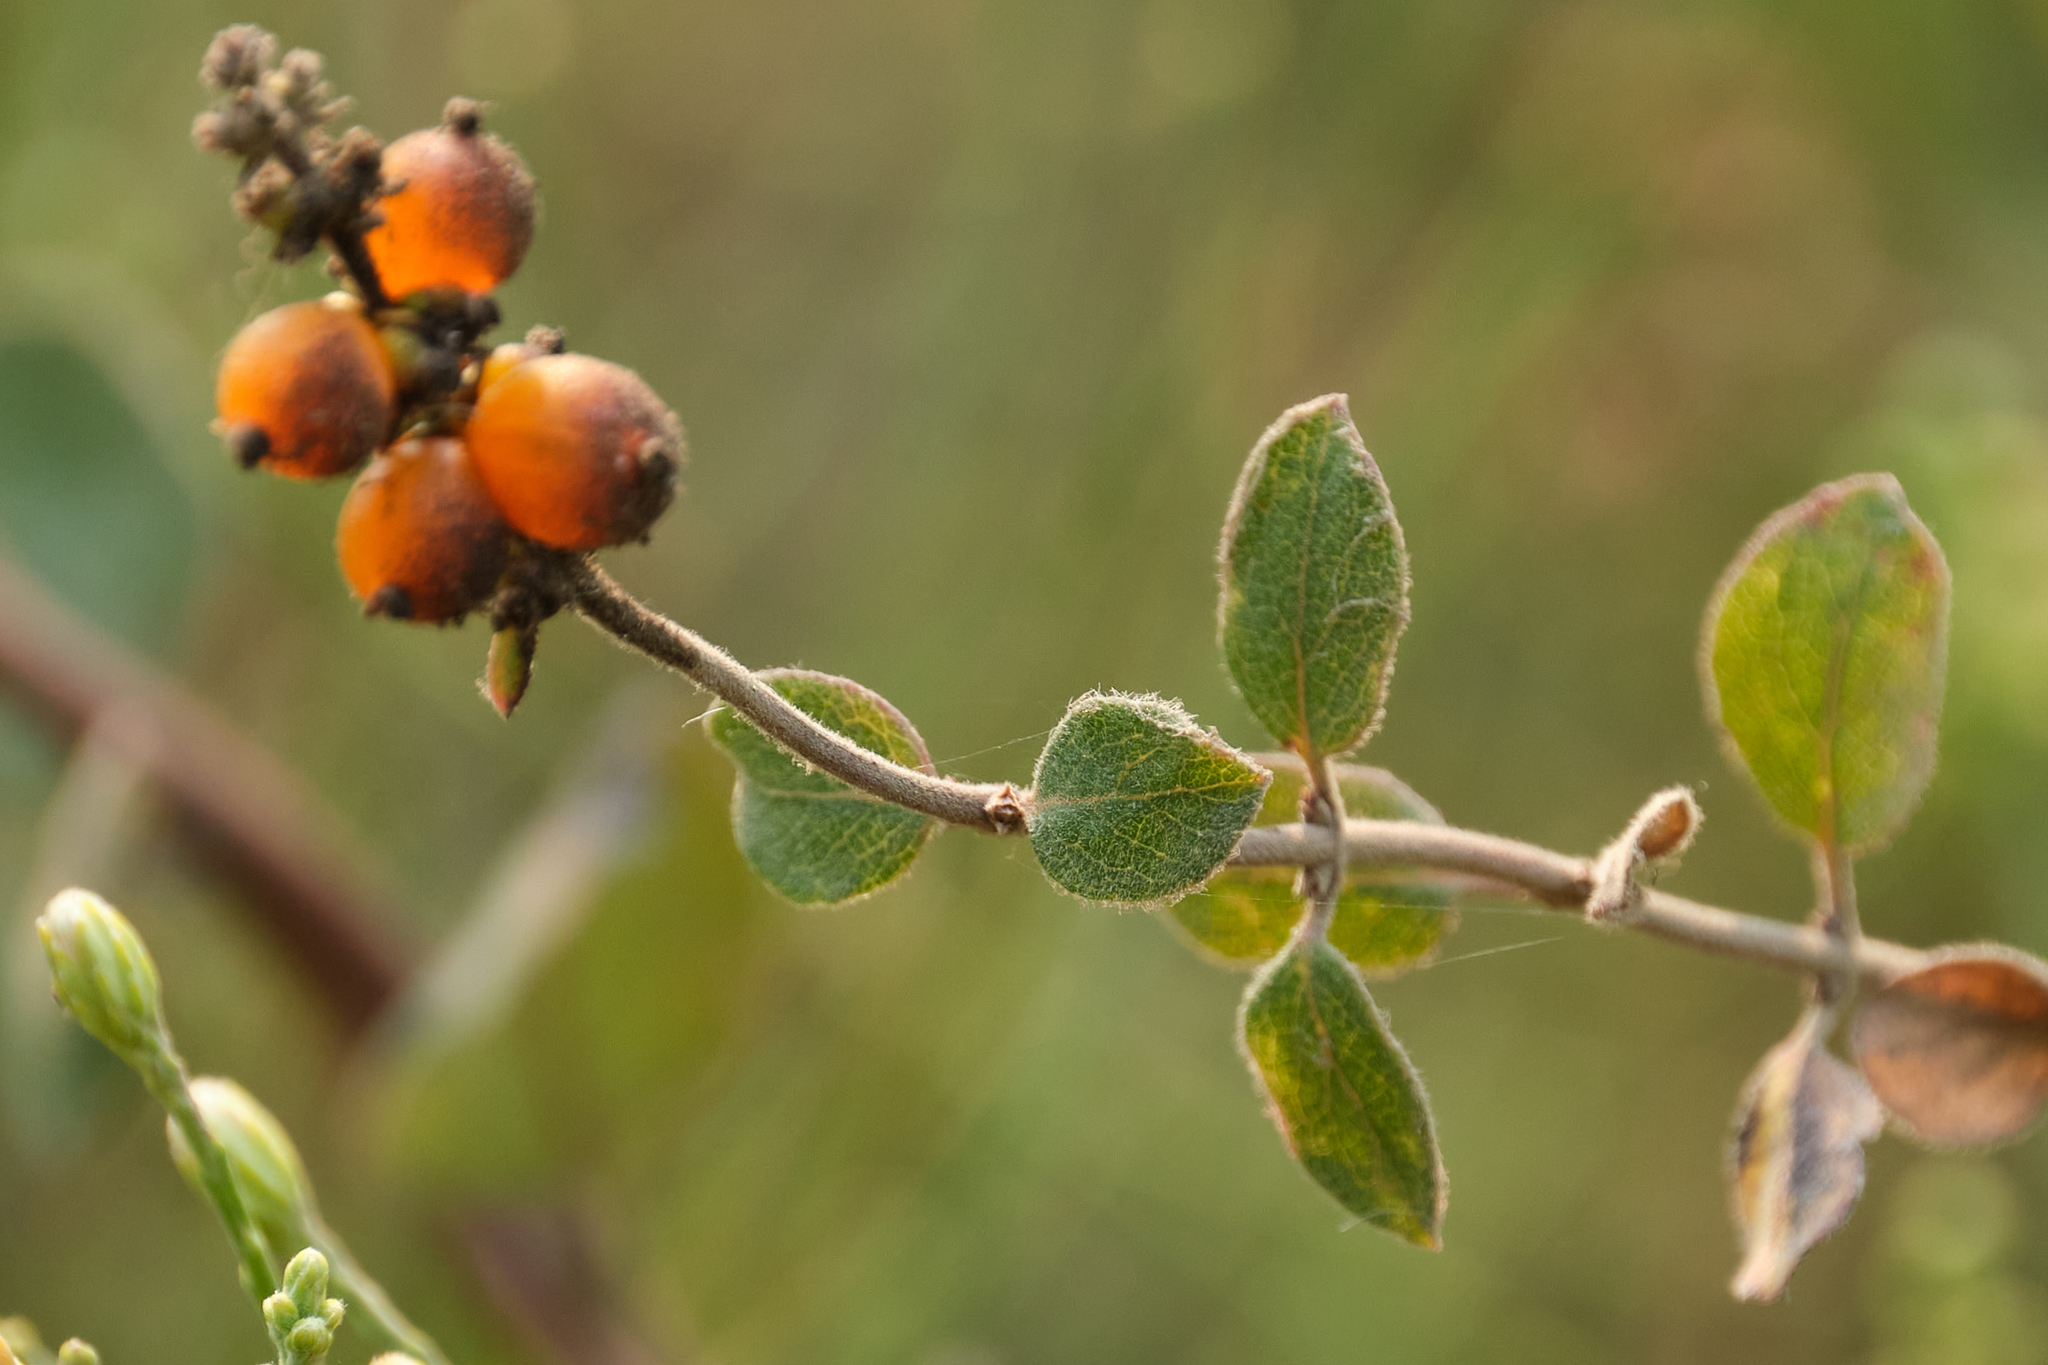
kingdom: Plantae
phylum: Tracheophyta
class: Magnoliopsida
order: Dipsacales
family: Caprifoliaceae
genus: Lonicera
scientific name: Lonicera subspicata
